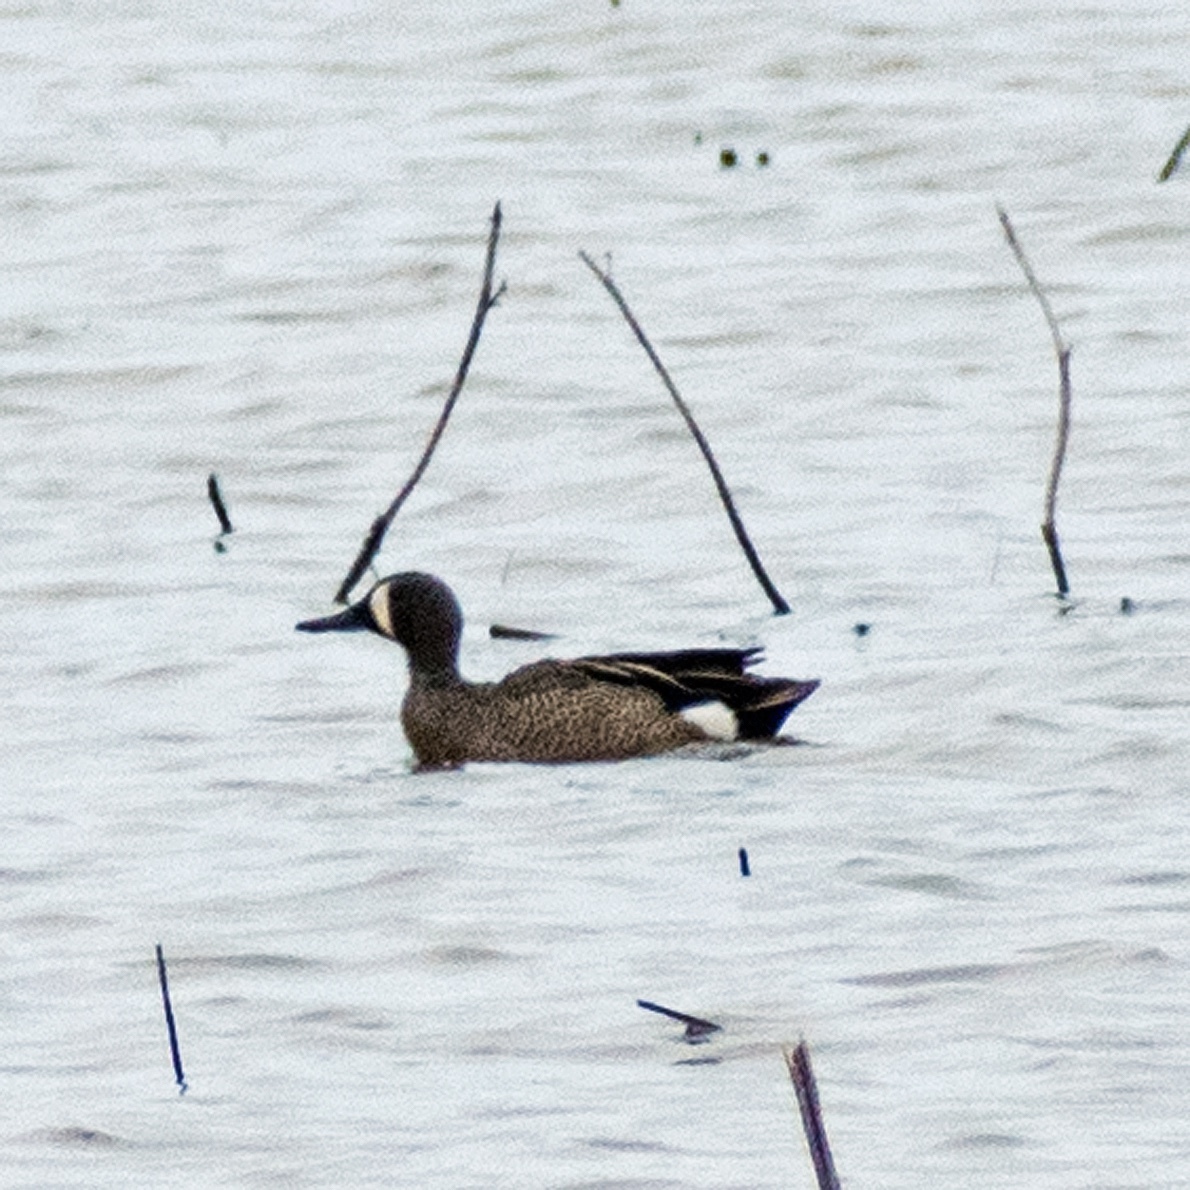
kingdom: Animalia
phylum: Chordata
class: Aves
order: Anseriformes
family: Anatidae
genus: Spatula
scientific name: Spatula discors
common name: Blue-winged teal
